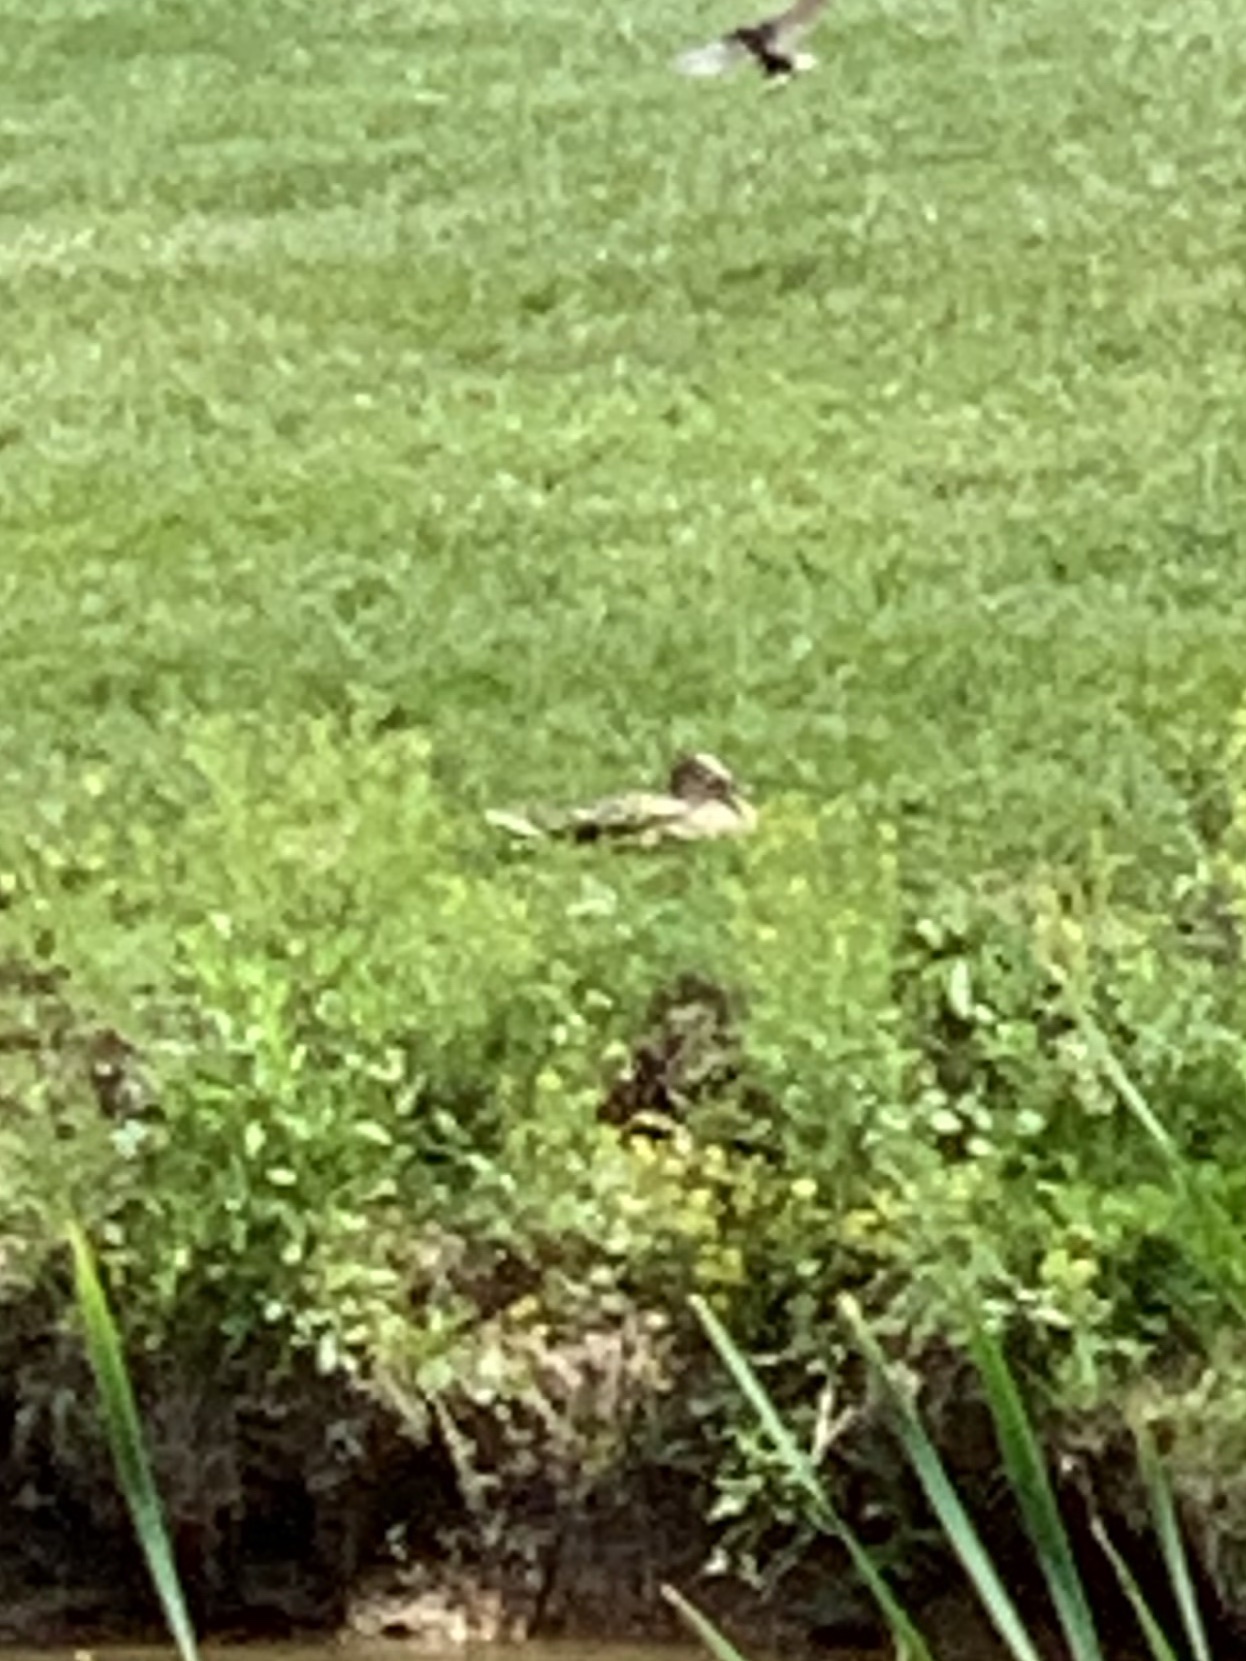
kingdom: Animalia
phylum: Chordata
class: Aves
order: Anseriformes
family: Anatidae
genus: Anas
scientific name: Anas platyrhynchos
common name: Mallard
